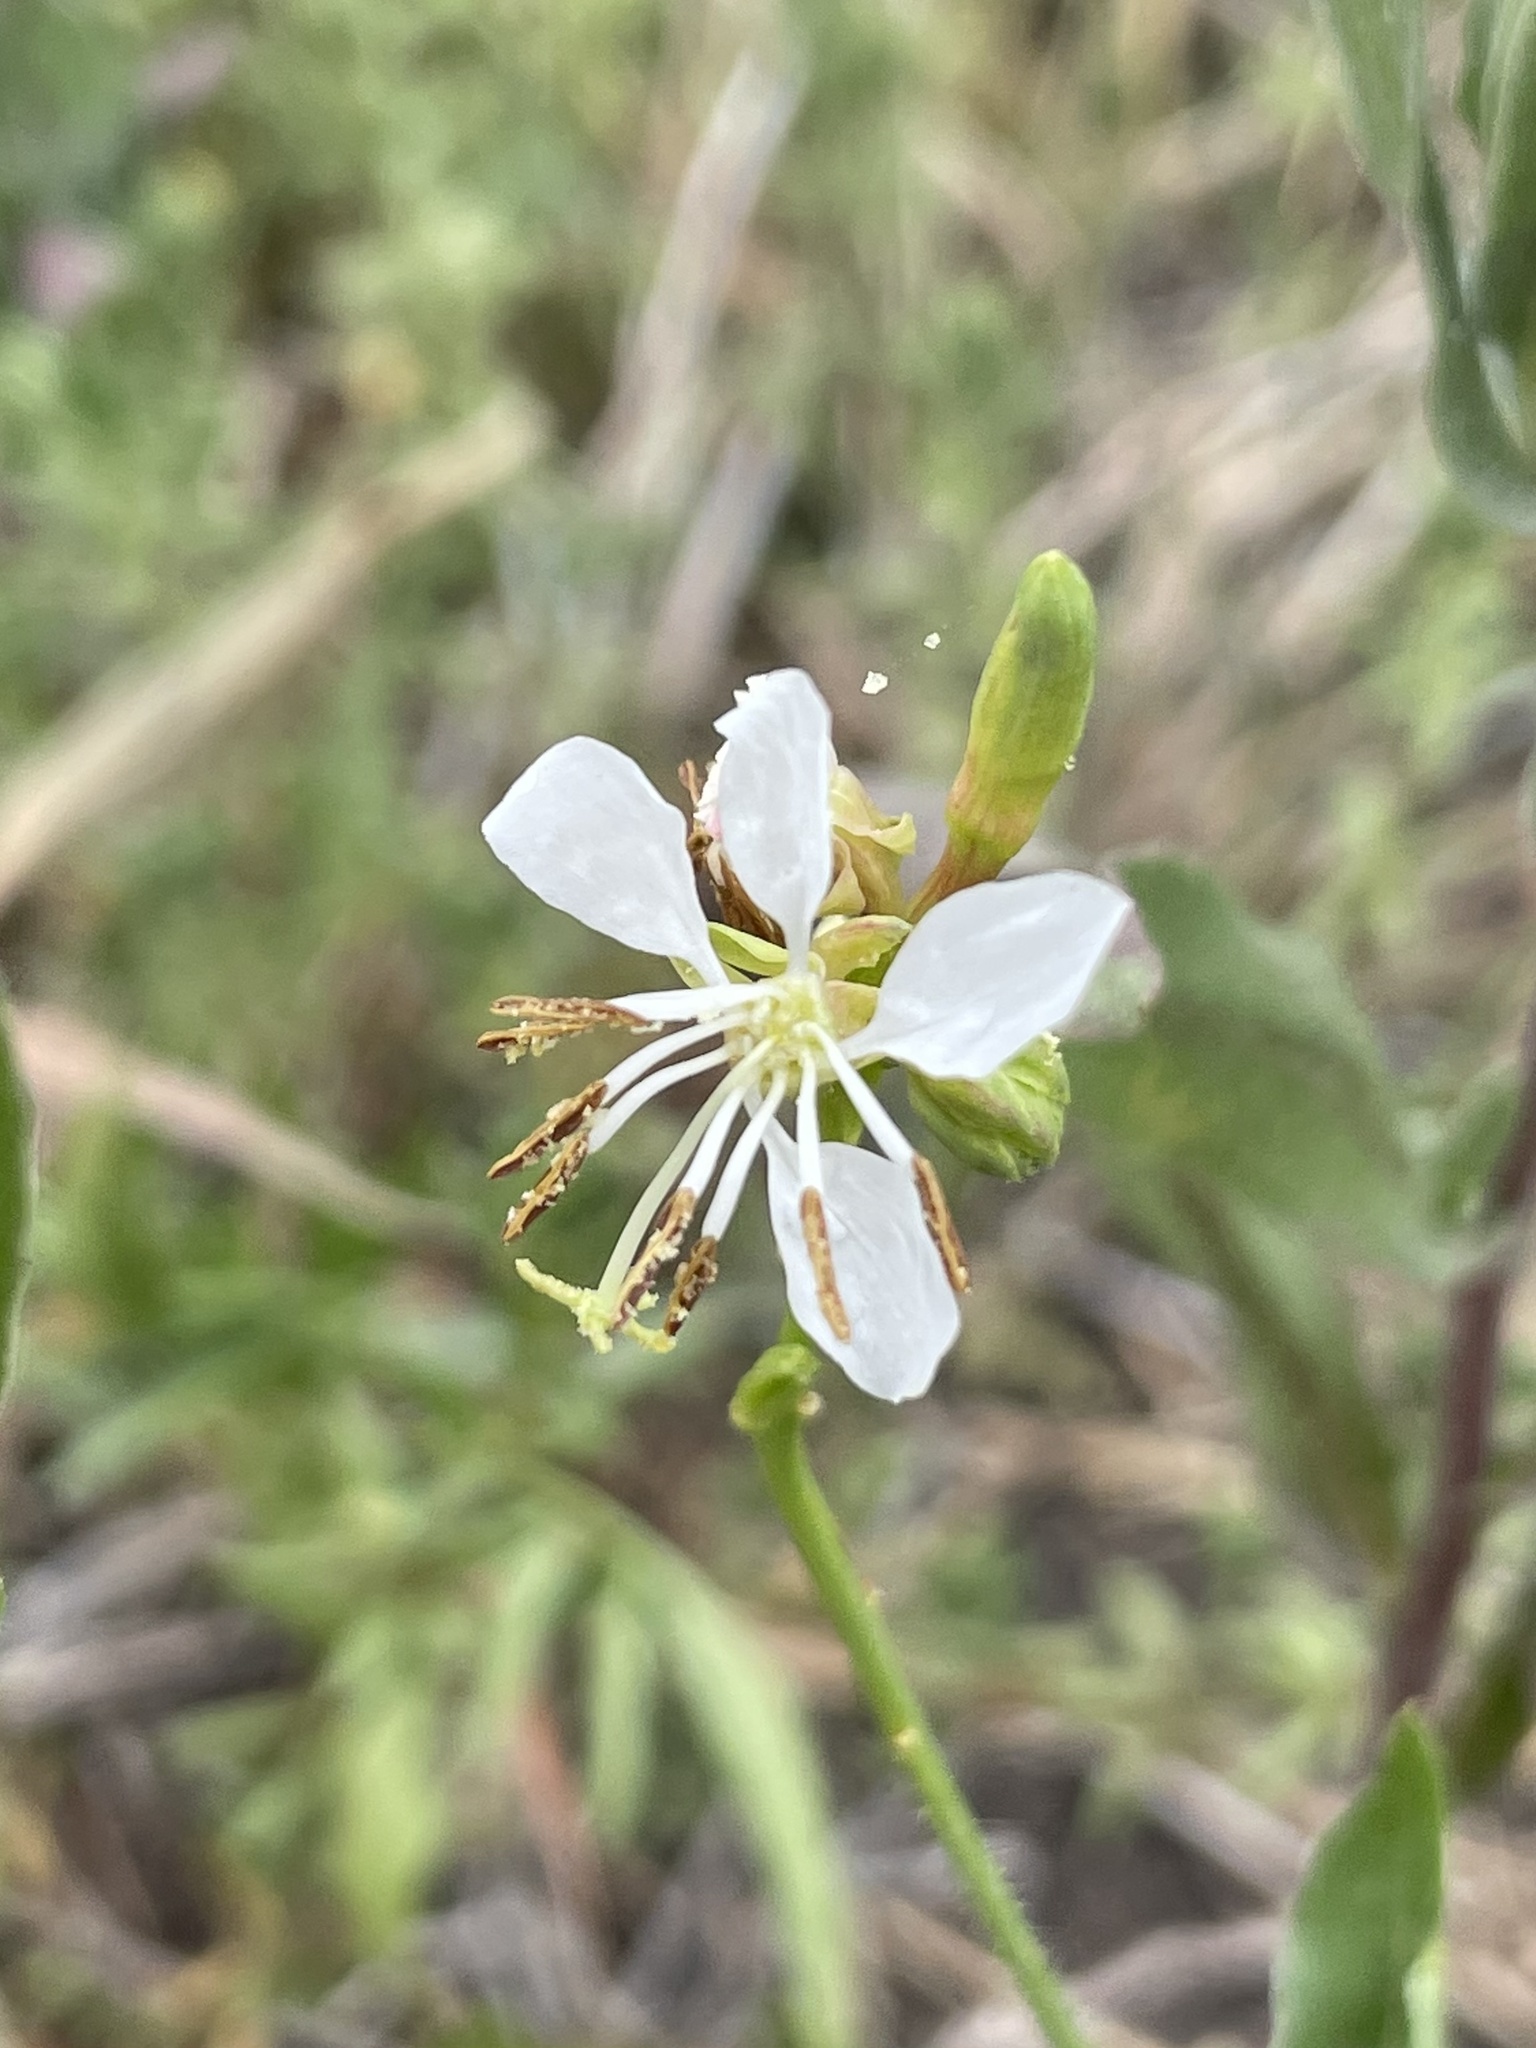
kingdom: Plantae
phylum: Tracheophyta
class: Magnoliopsida
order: Myrtales
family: Onagraceae
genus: Oenothera
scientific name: Oenothera suffulta
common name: Kisses
